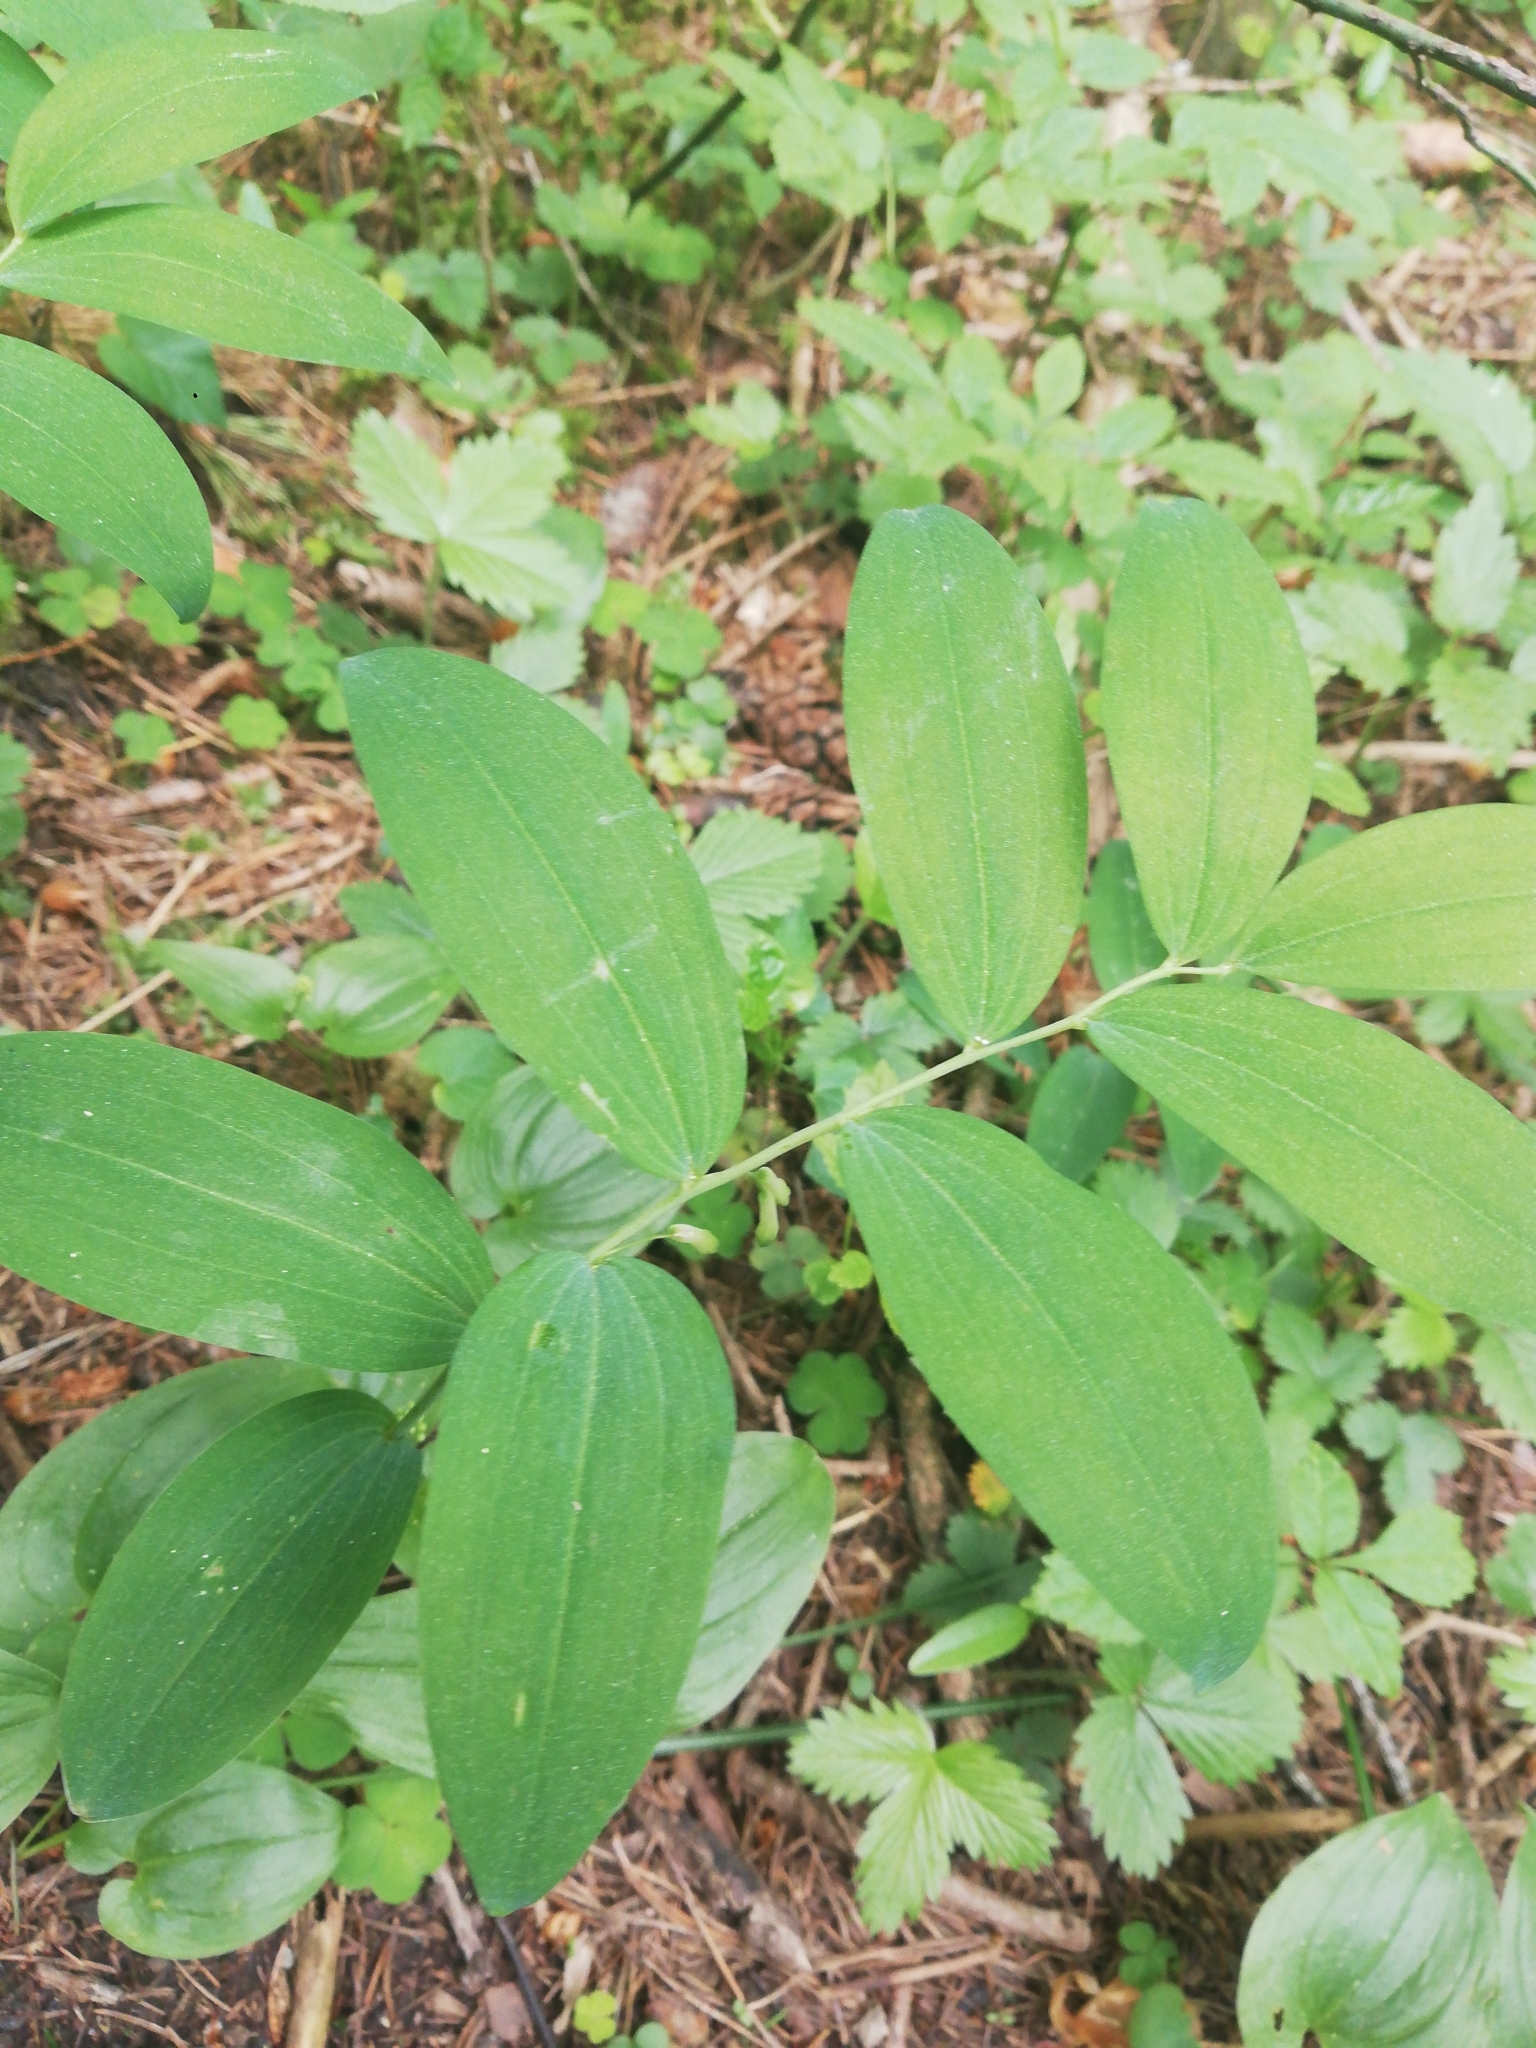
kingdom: Plantae
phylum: Tracheophyta
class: Liliopsida
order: Asparagales
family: Asparagaceae
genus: Polygonatum
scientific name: Polygonatum multiflorum
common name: Solomon's-seal
